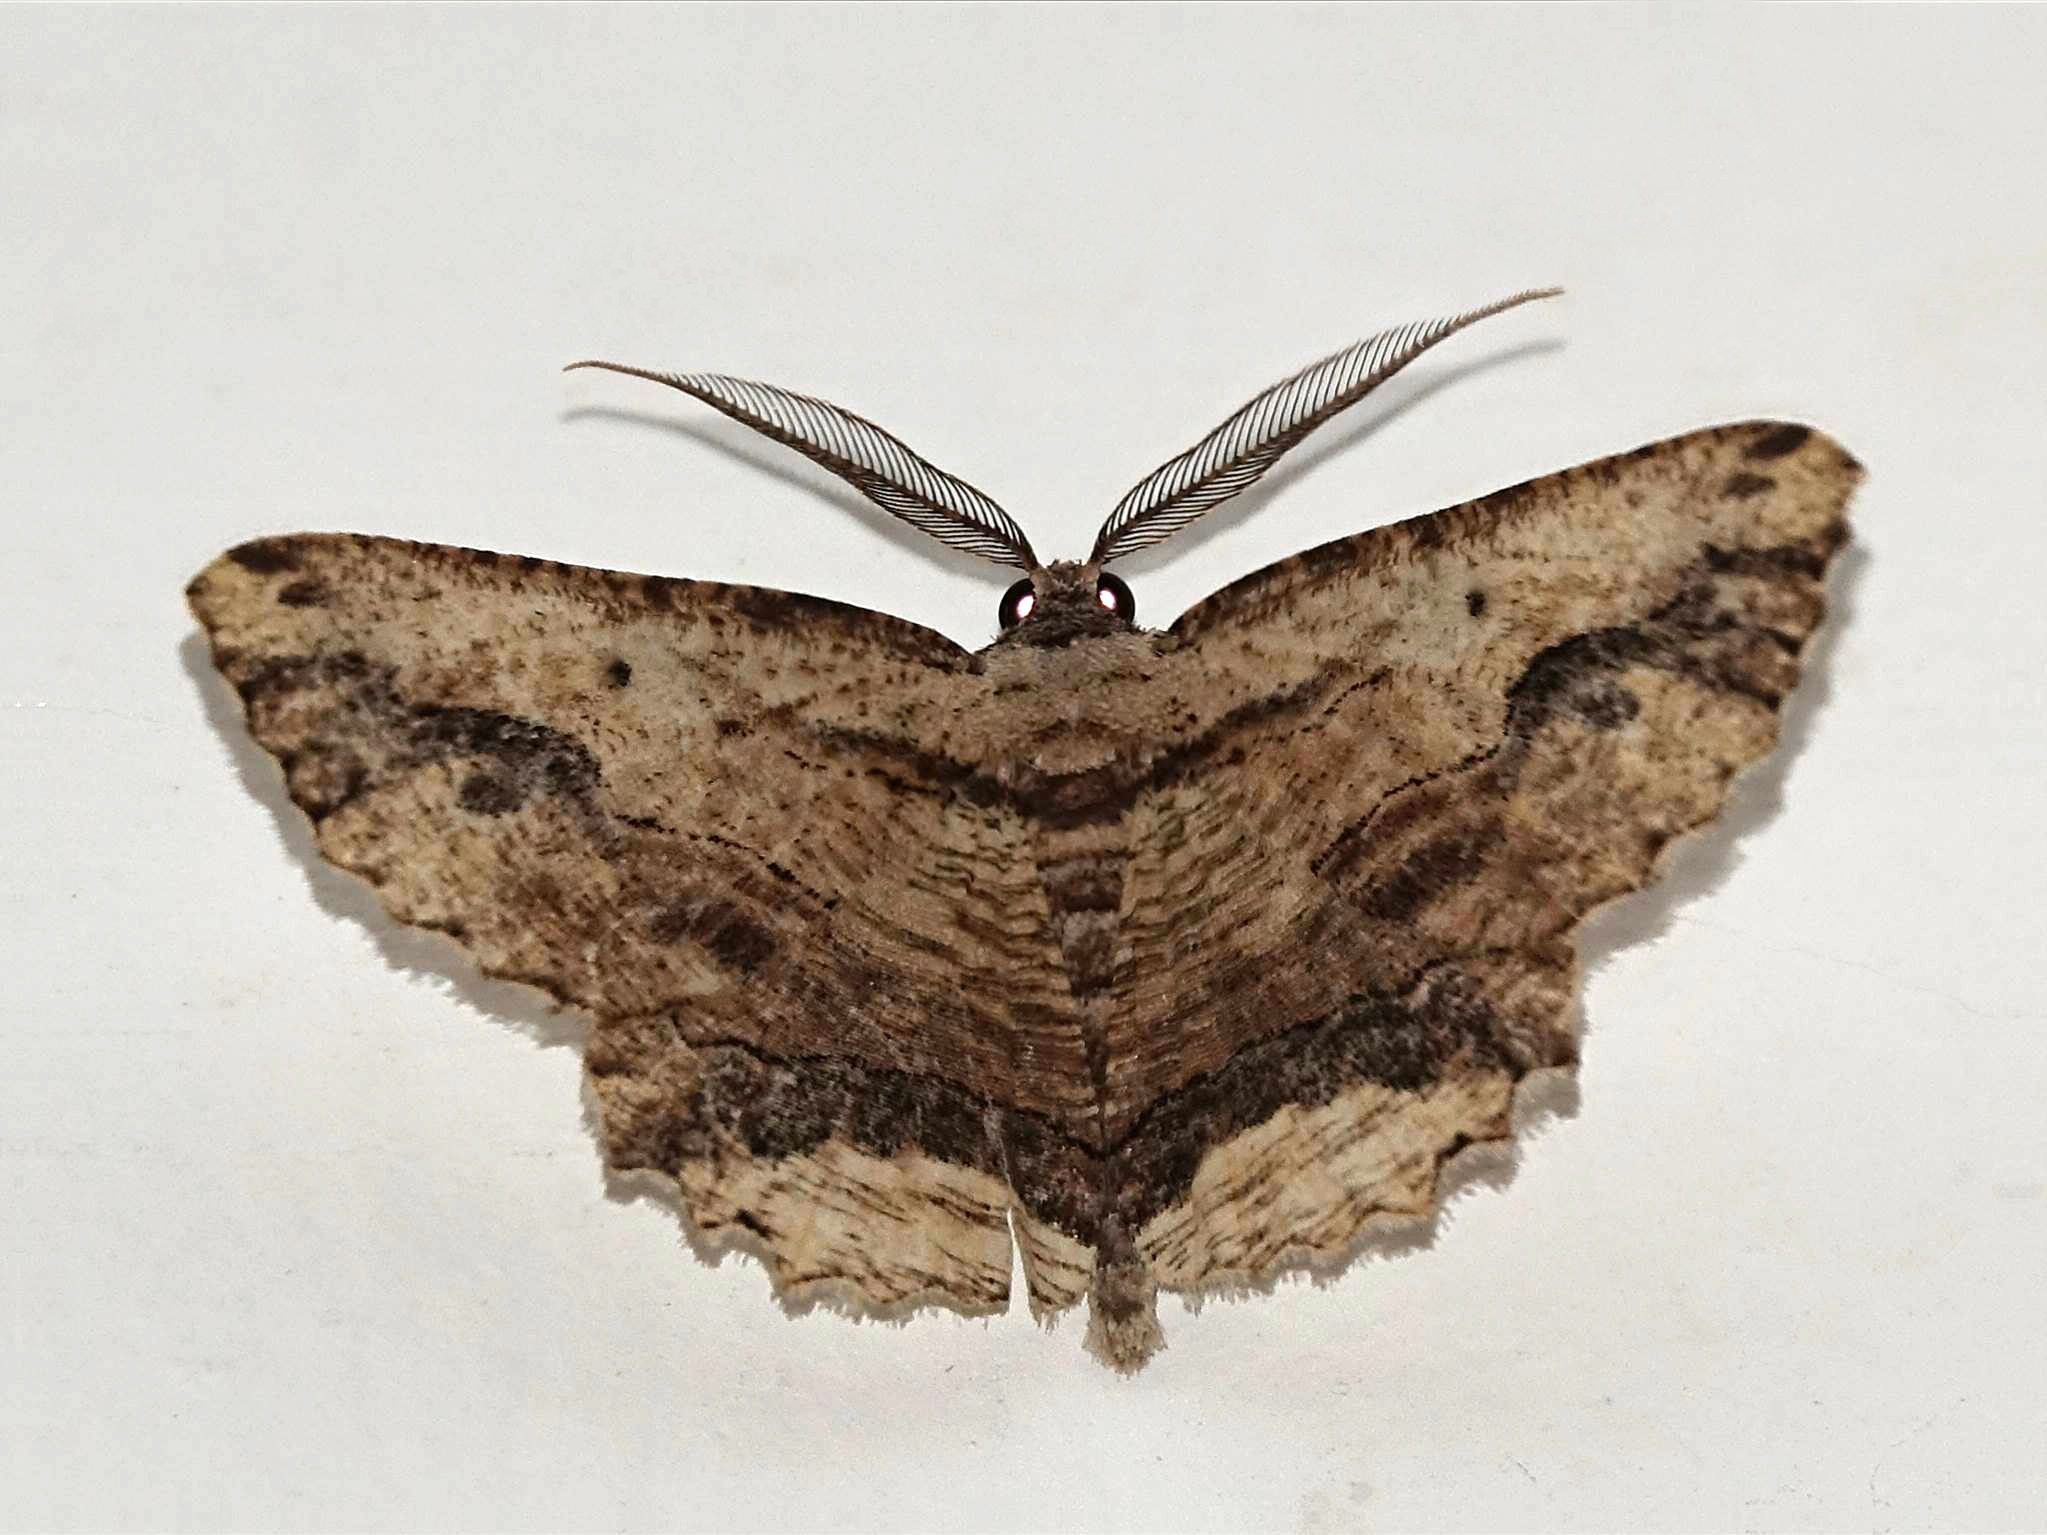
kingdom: Animalia
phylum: Arthropoda
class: Insecta
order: Lepidoptera
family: Geometridae
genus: Menophra
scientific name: Menophra abruptaria
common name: Waved umber
